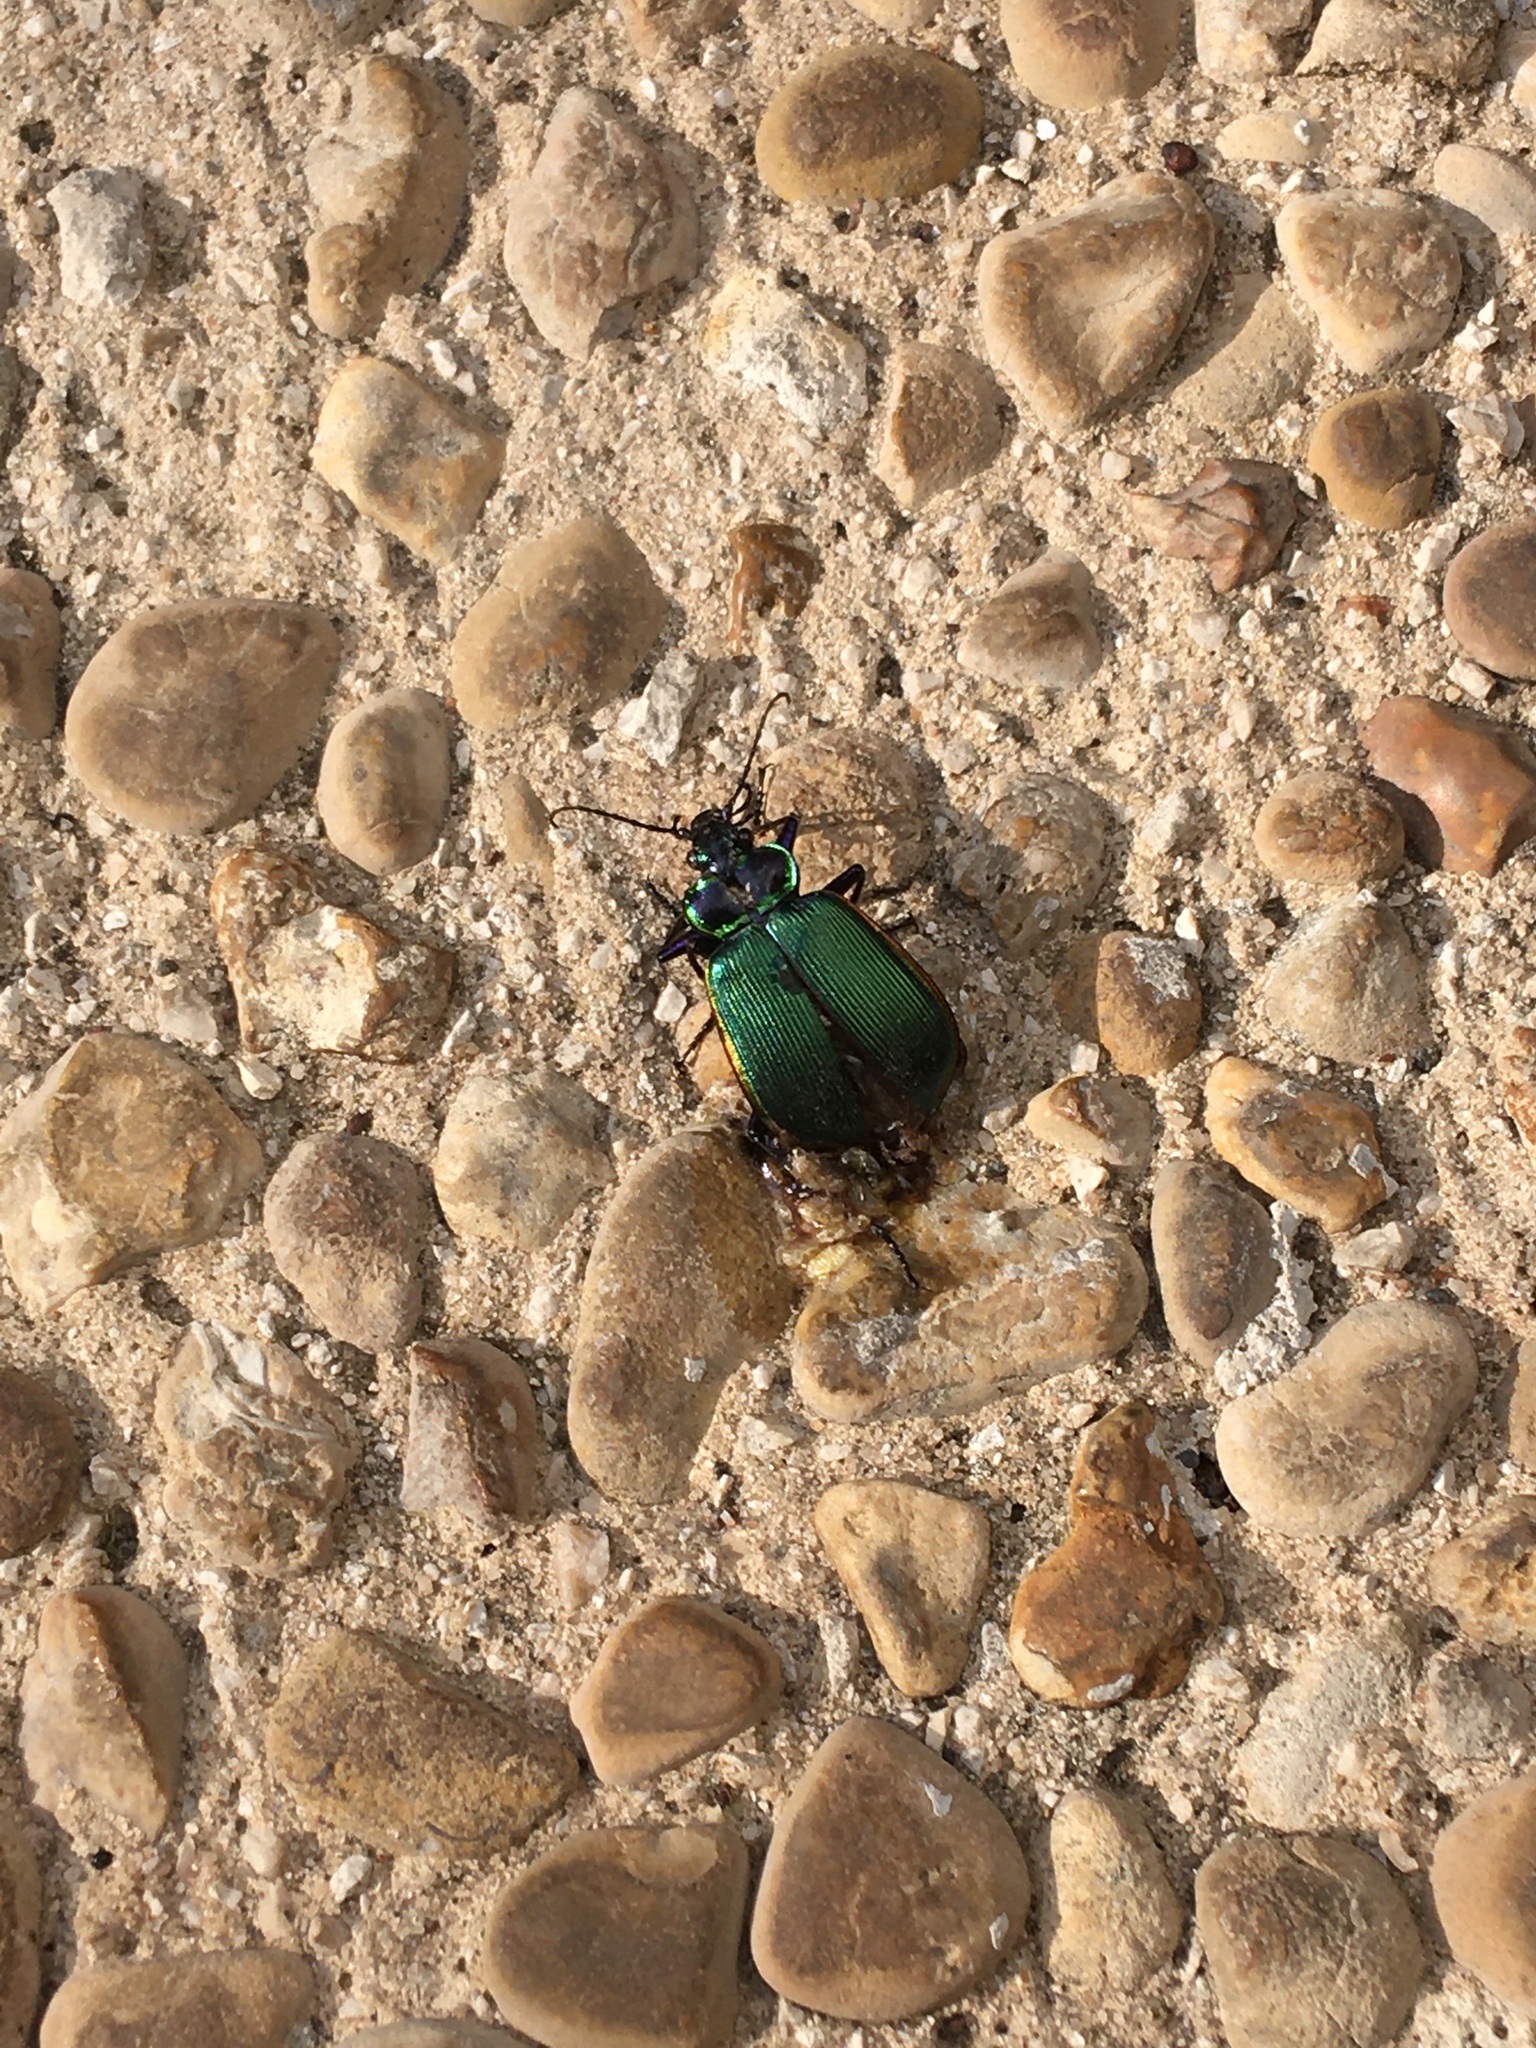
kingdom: Animalia
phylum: Arthropoda
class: Insecta
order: Coleoptera
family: Carabidae
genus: Calosoma
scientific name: Calosoma scrutator
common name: Fiery searcher beetle
